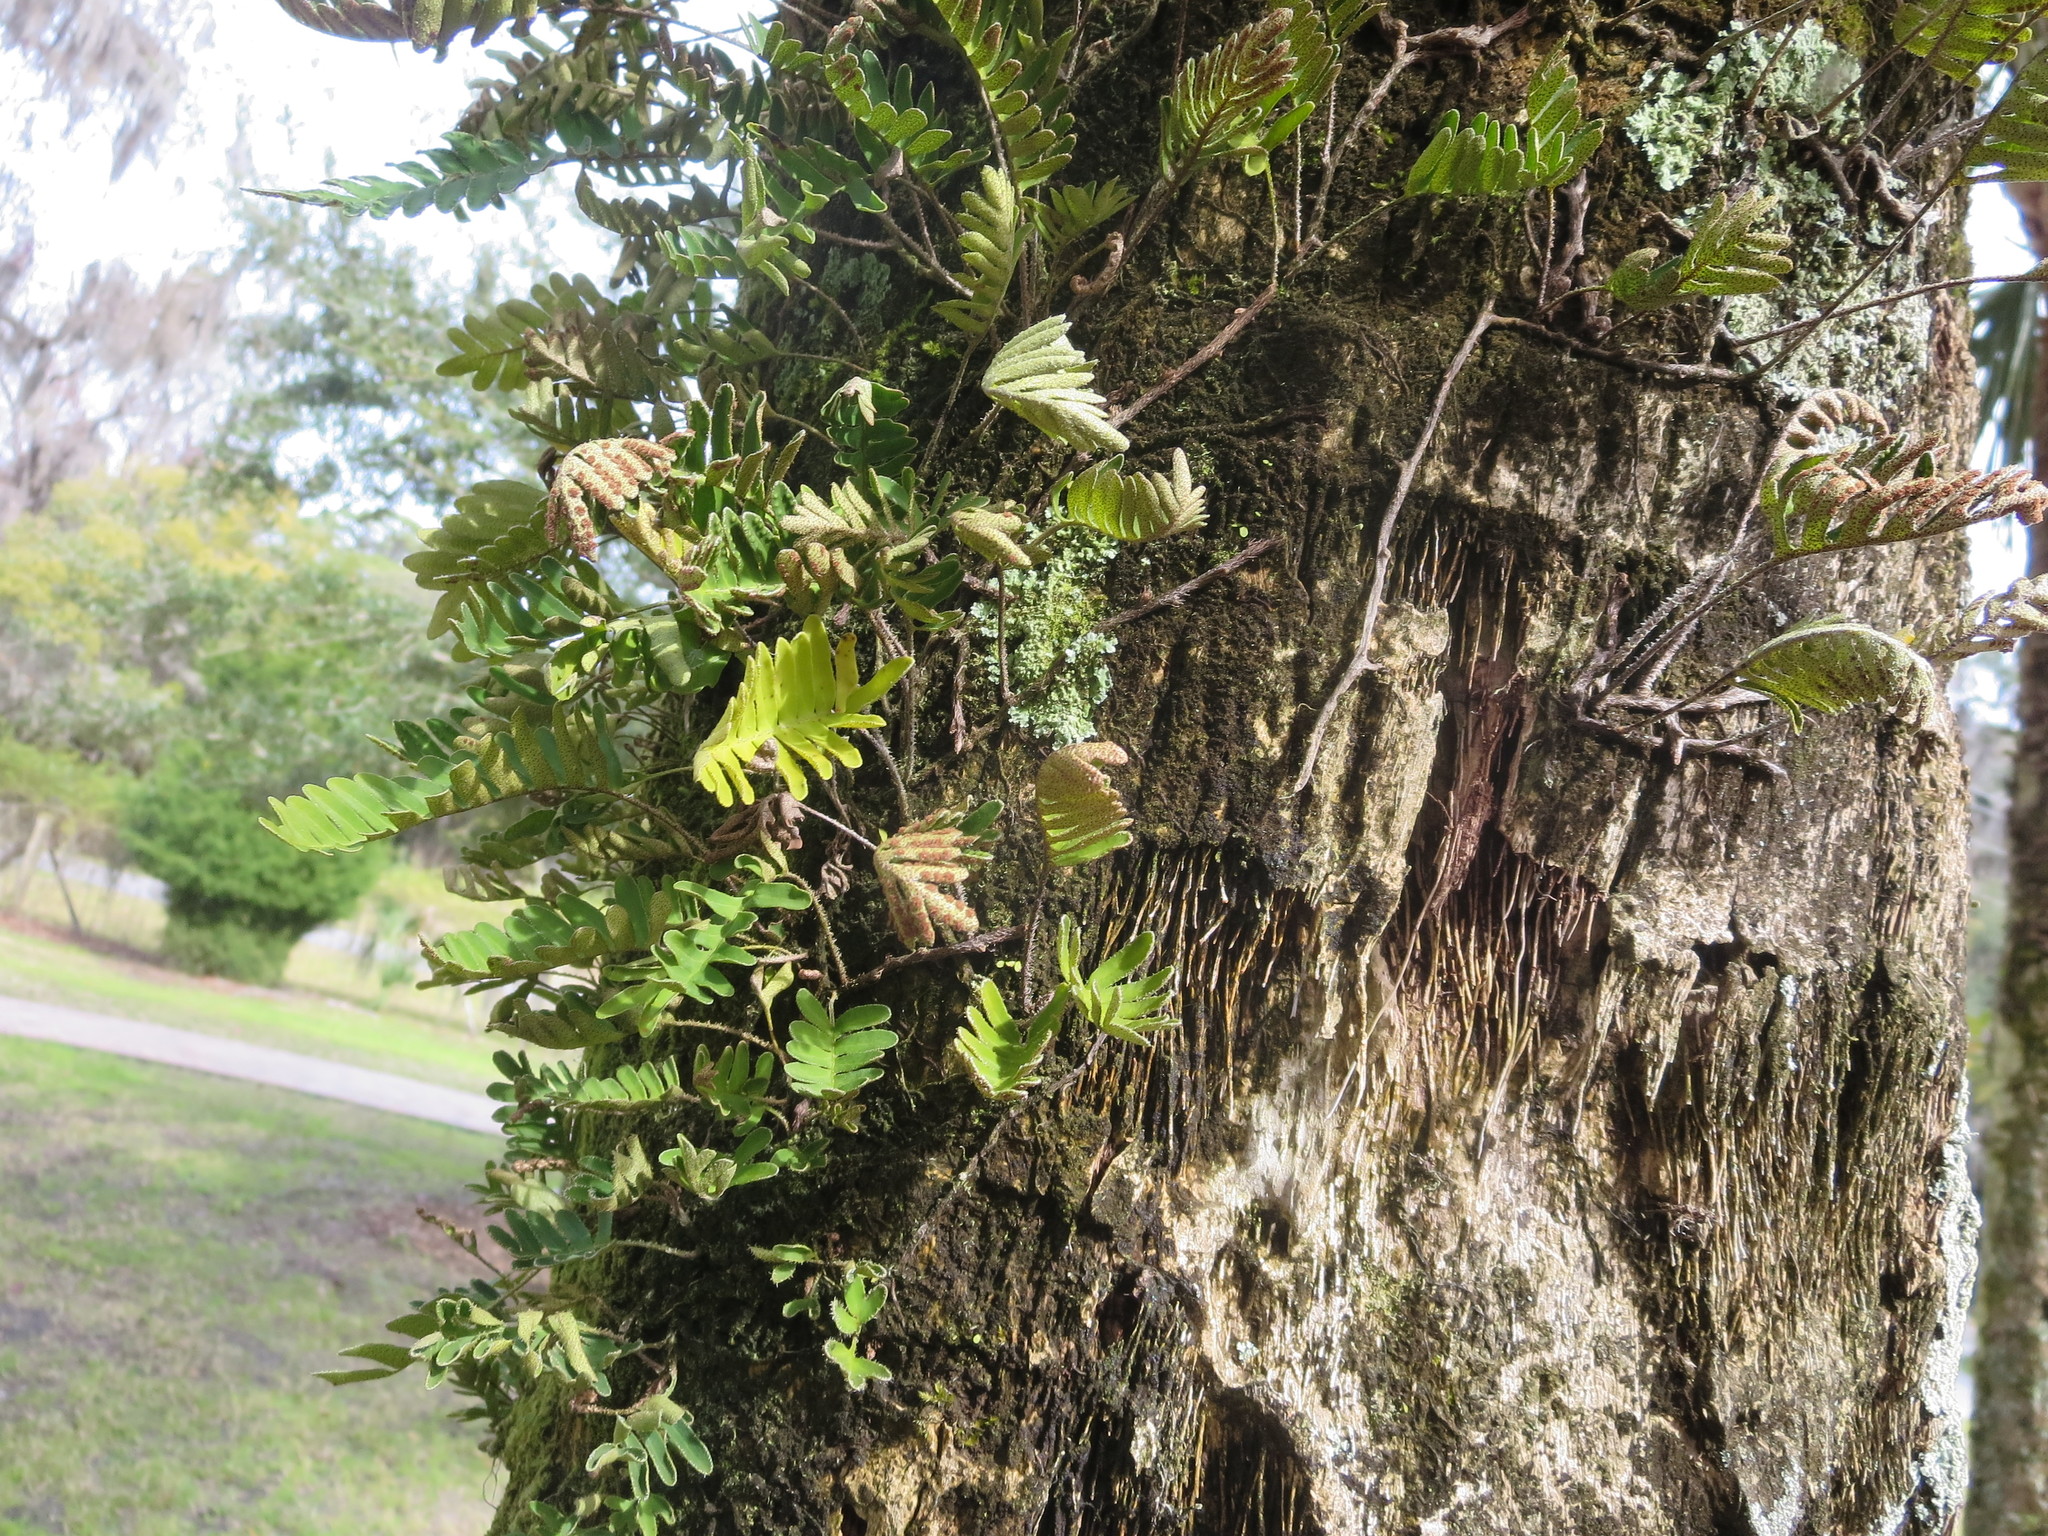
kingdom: Plantae
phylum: Tracheophyta
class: Polypodiopsida
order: Polypodiales
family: Polypodiaceae
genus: Pleopeltis
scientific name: Pleopeltis michauxiana
